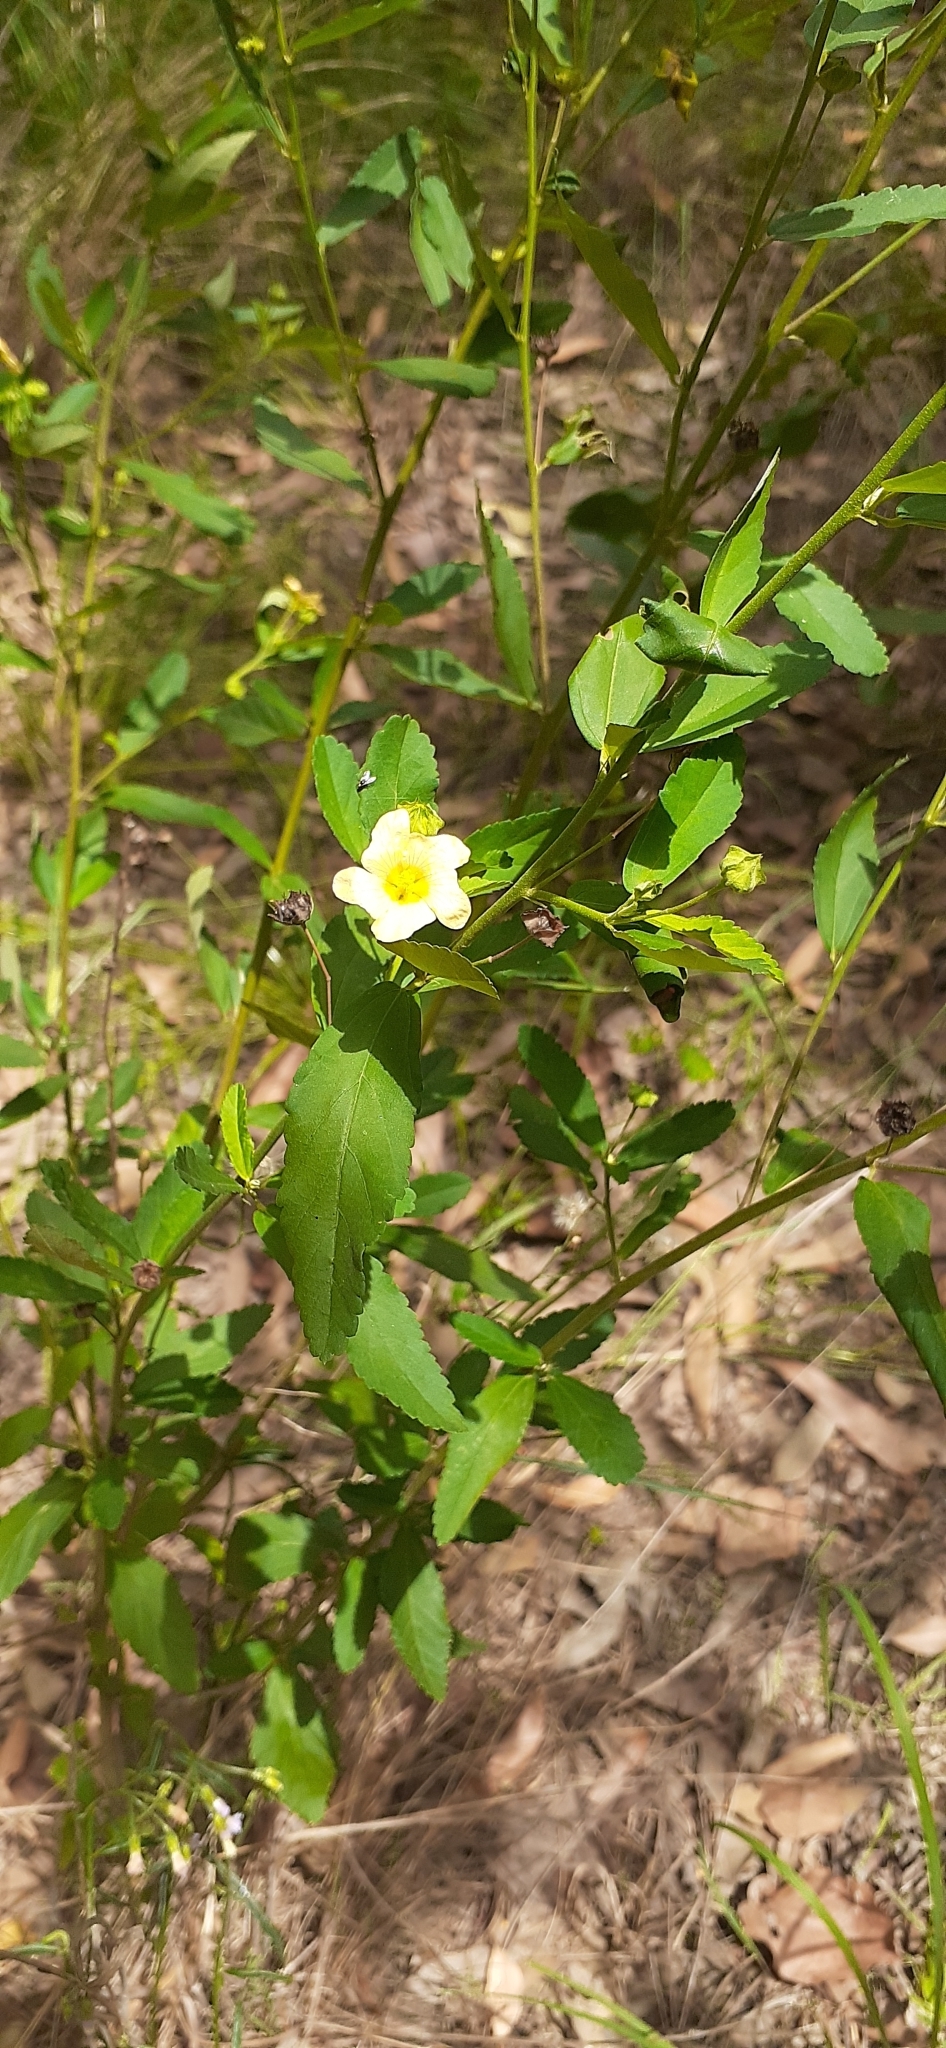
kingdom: Plantae
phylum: Tracheophyta
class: Magnoliopsida
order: Malvales
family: Malvaceae
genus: Sida
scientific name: Sida rhombifolia
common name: Queensland-hemp
